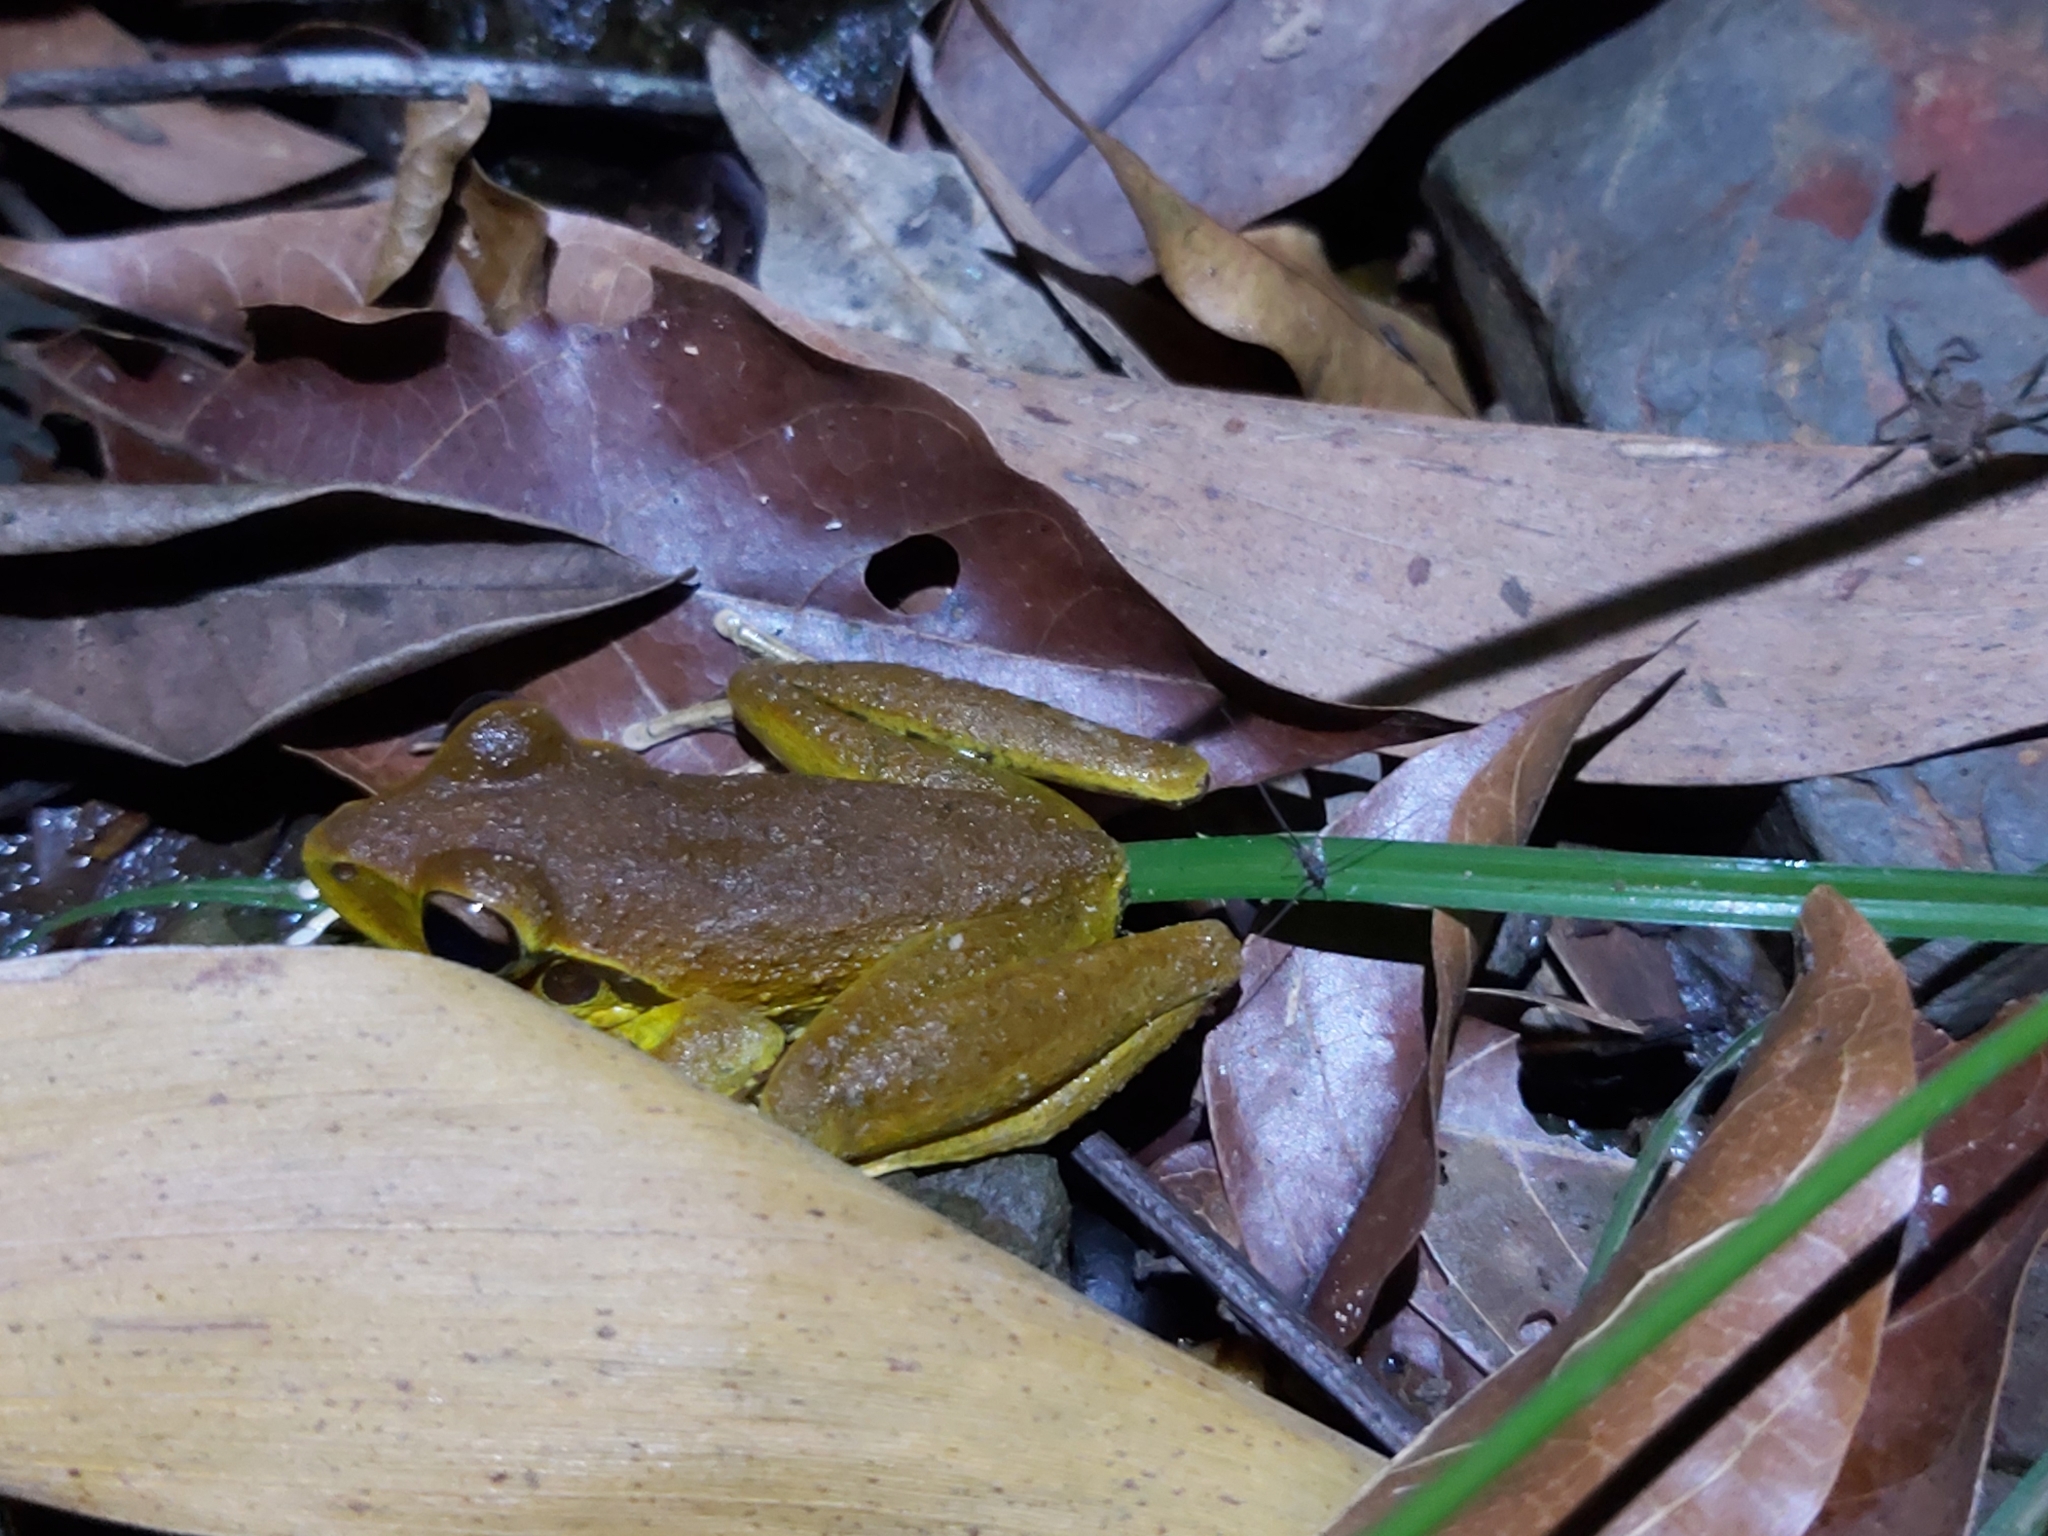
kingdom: Animalia
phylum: Chordata
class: Amphibia
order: Anura
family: Hylidae
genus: Ranoidea
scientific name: Ranoidea
